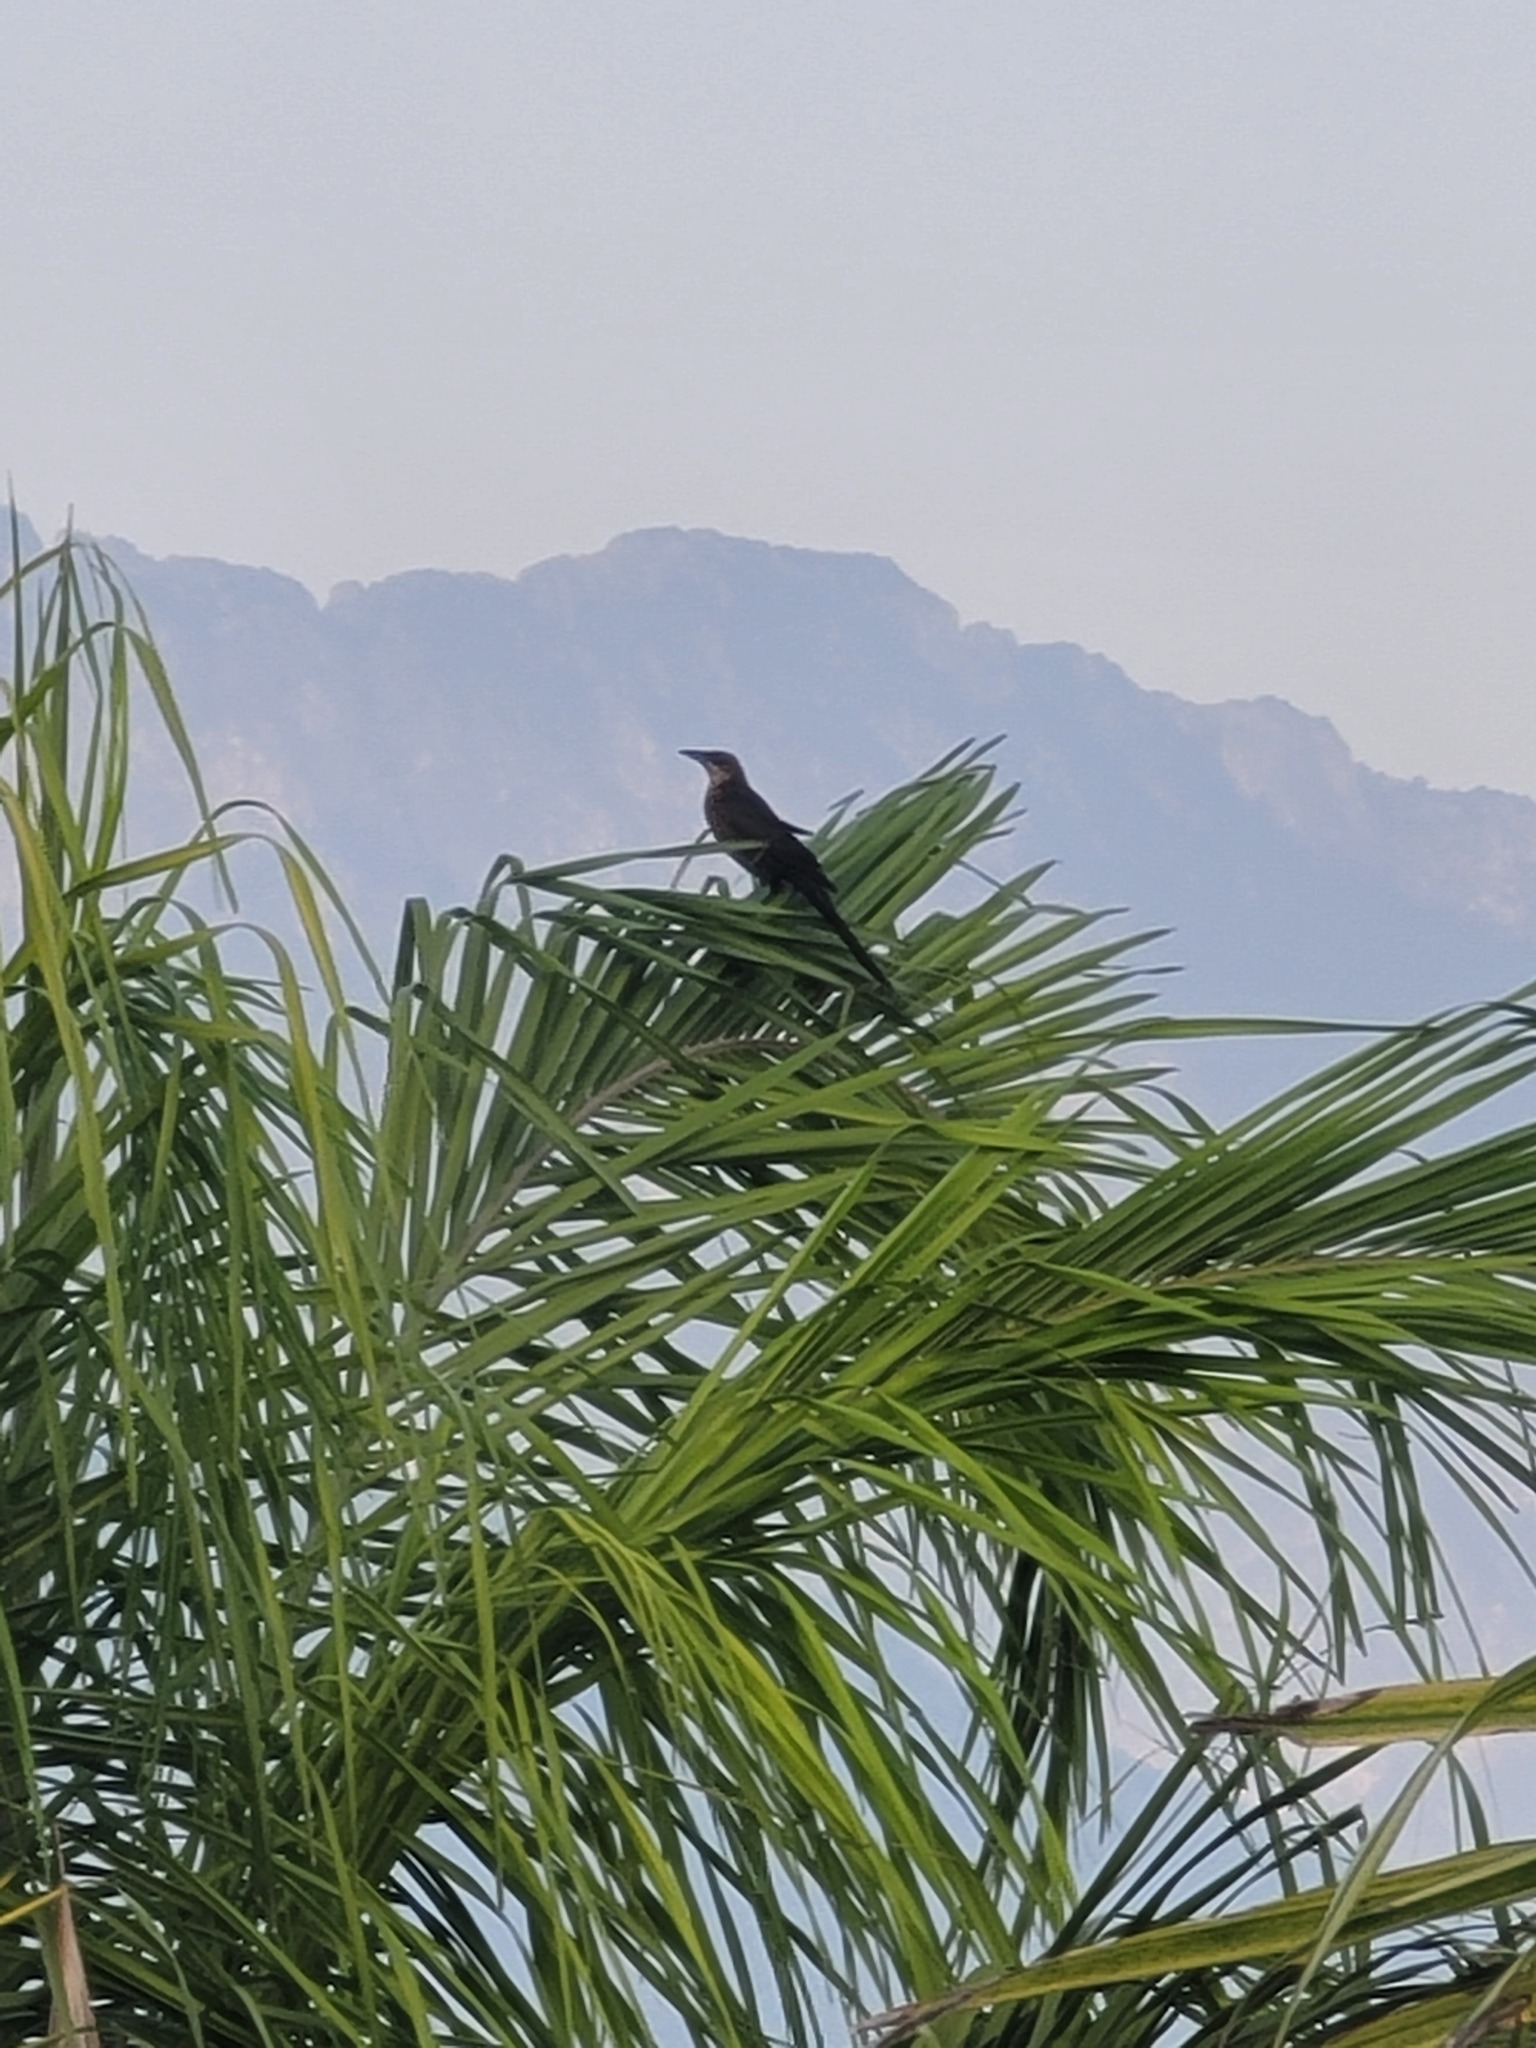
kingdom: Animalia
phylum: Chordata
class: Aves
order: Passeriformes
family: Icteridae
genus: Quiscalus
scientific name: Quiscalus mexicanus
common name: Great-tailed grackle
